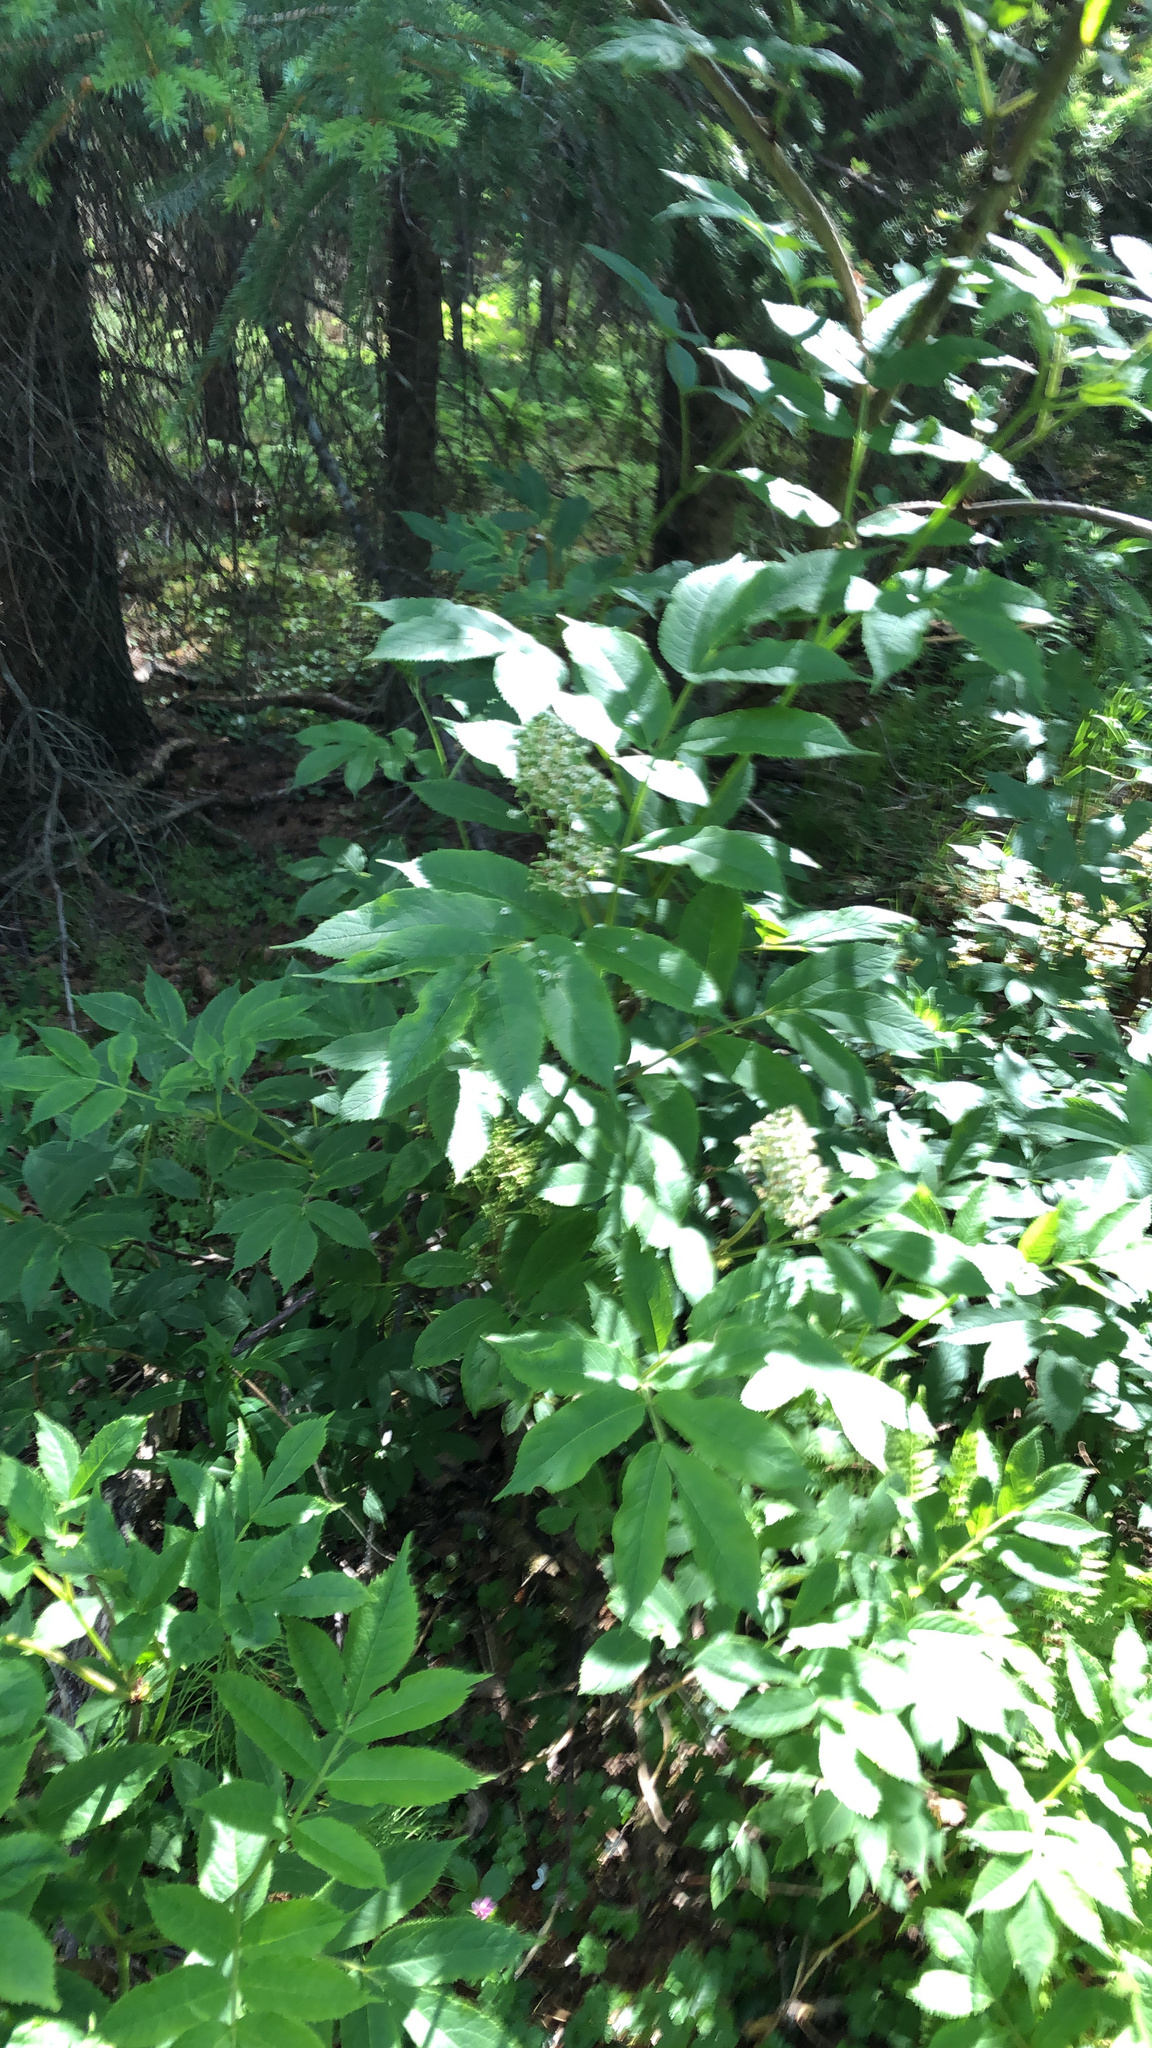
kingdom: Plantae
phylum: Tracheophyta
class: Magnoliopsida
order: Dipsacales
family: Viburnaceae
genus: Sambucus
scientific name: Sambucus racemosa
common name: Red-berried elder
